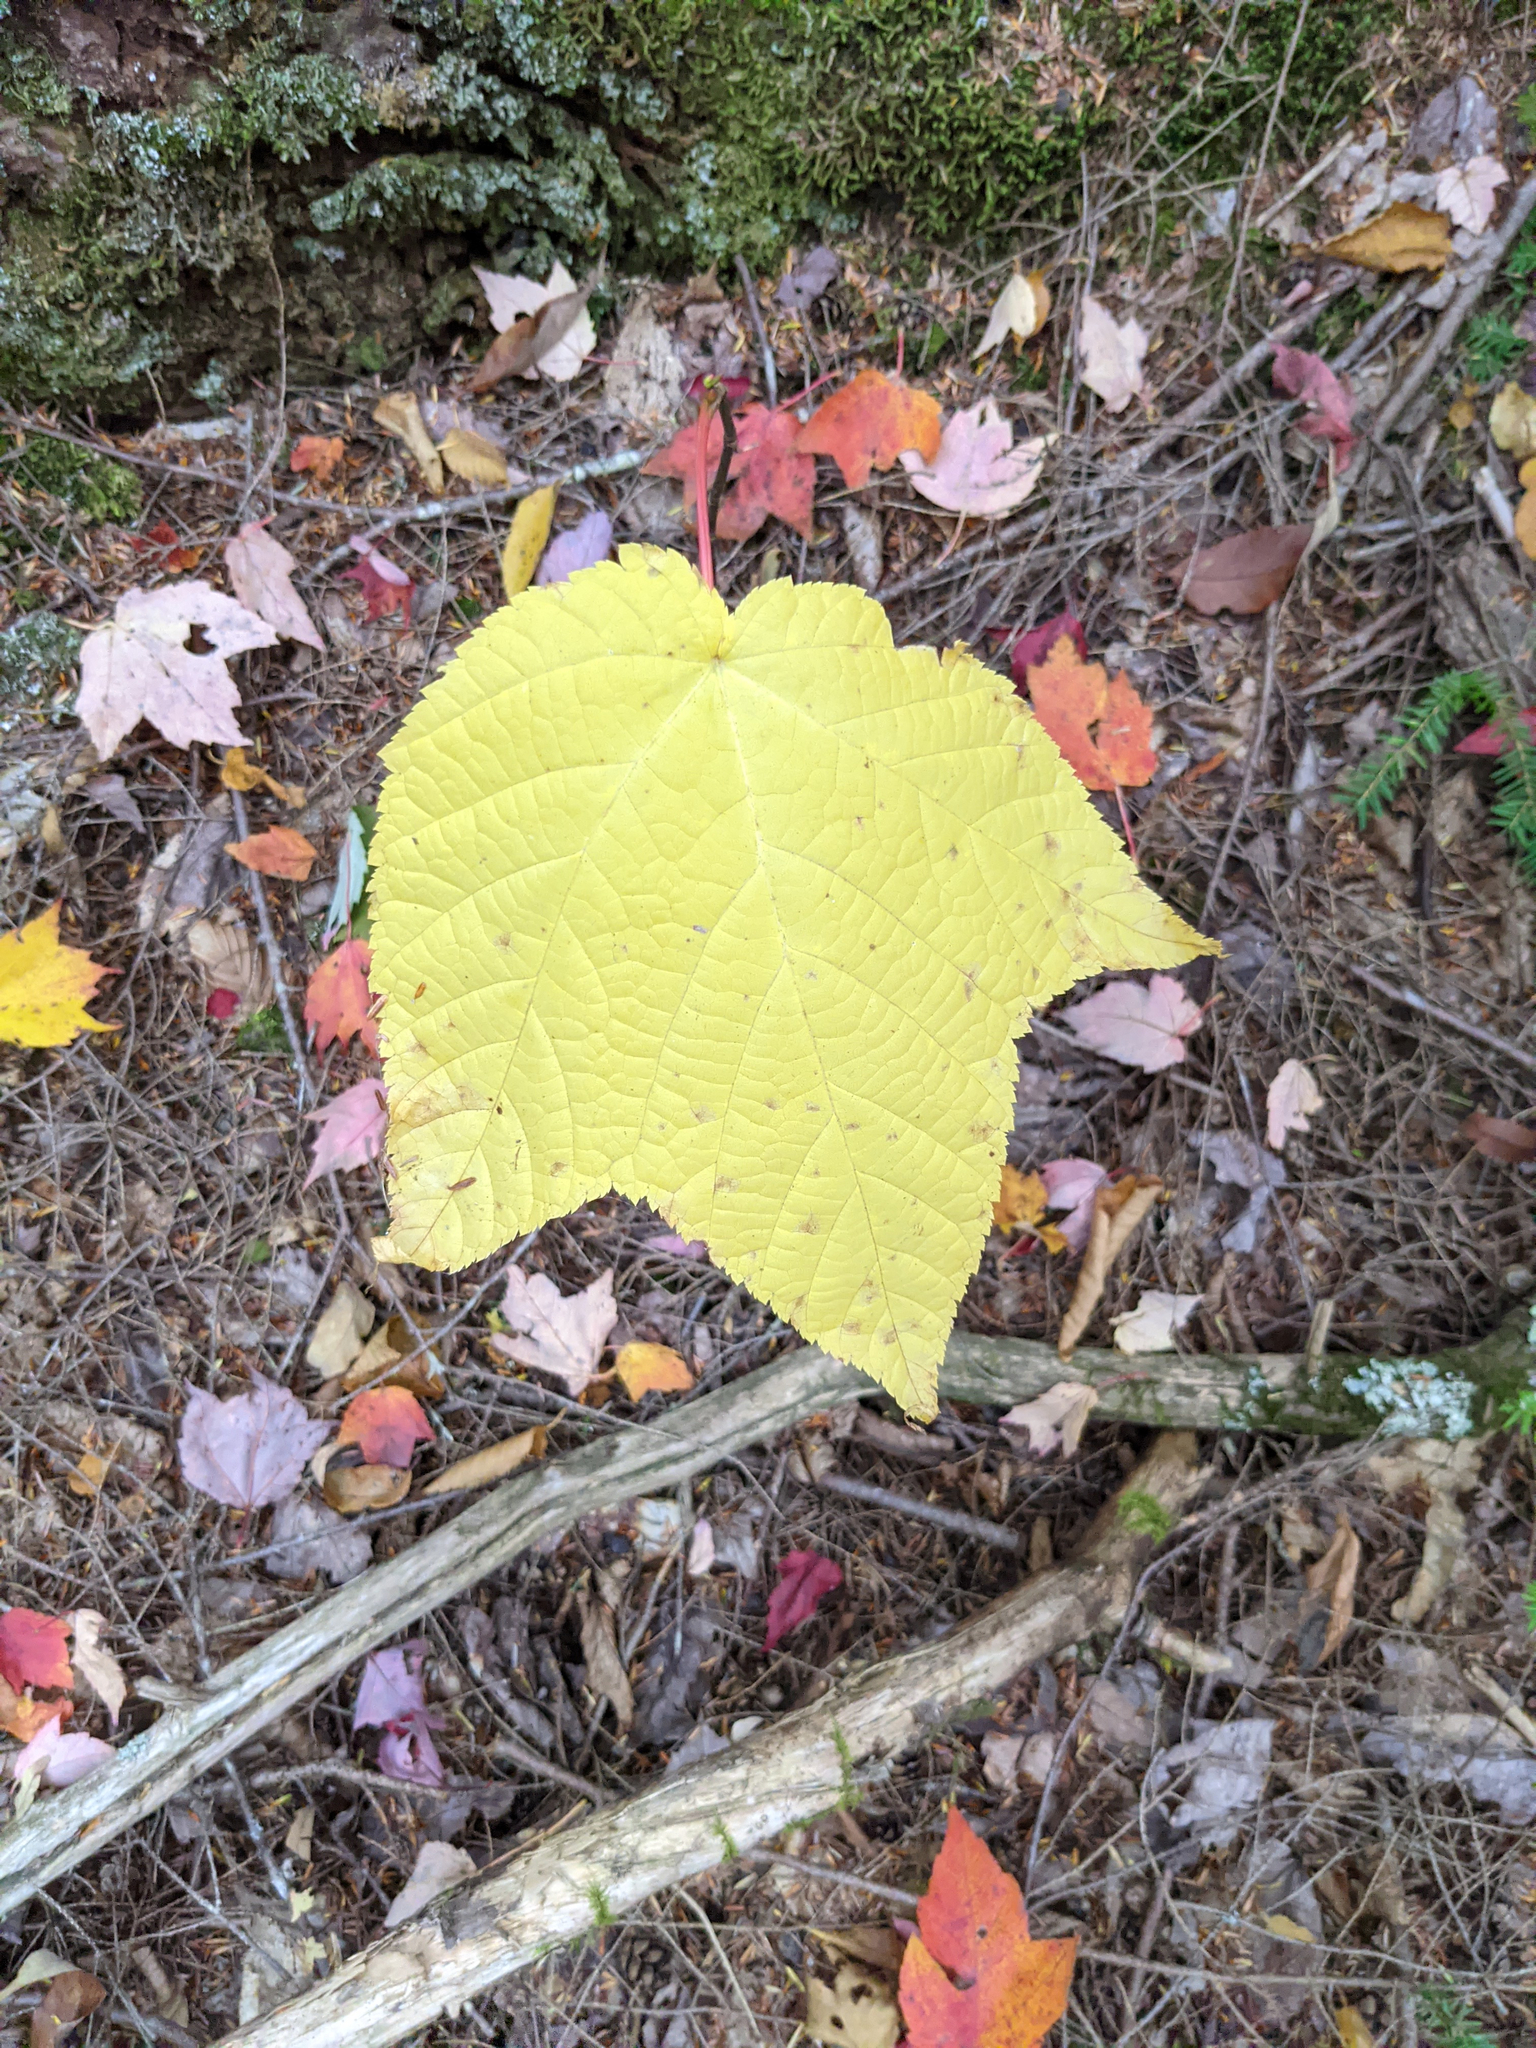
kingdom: Plantae
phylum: Tracheophyta
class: Magnoliopsida
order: Sapindales
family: Sapindaceae
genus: Acer
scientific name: Acer pensylvanicum
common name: Moosewood
